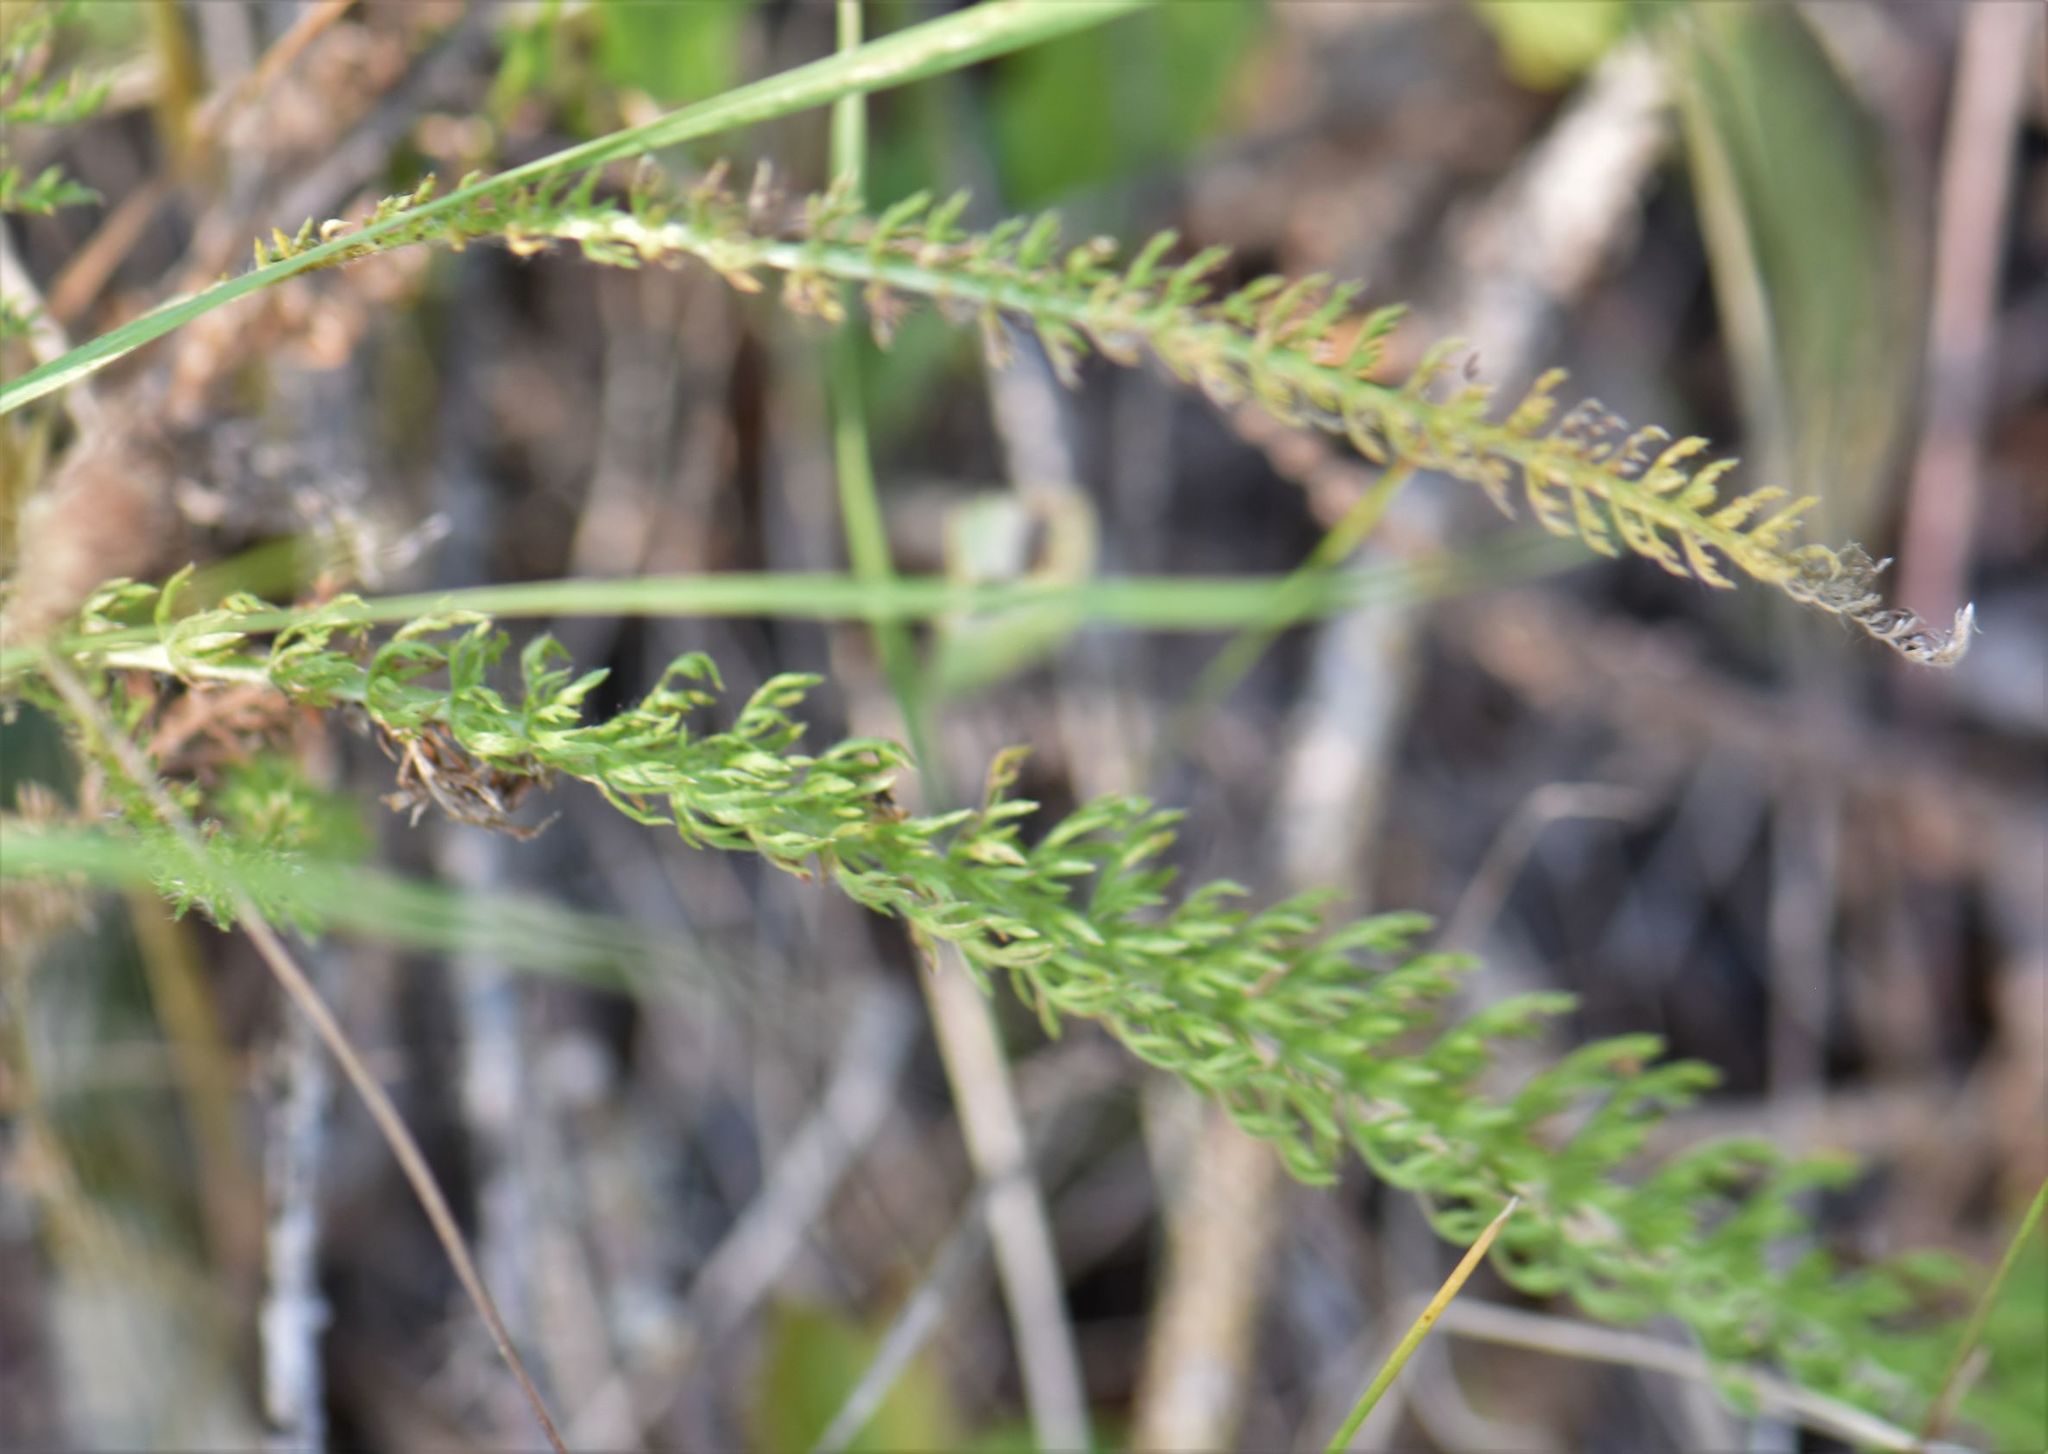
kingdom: Plantae
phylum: Tracheophyta
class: Magnoliopsida
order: Asterales
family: Asteraceae
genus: Achillea
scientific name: Achillea millefolium
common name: Yarrow
